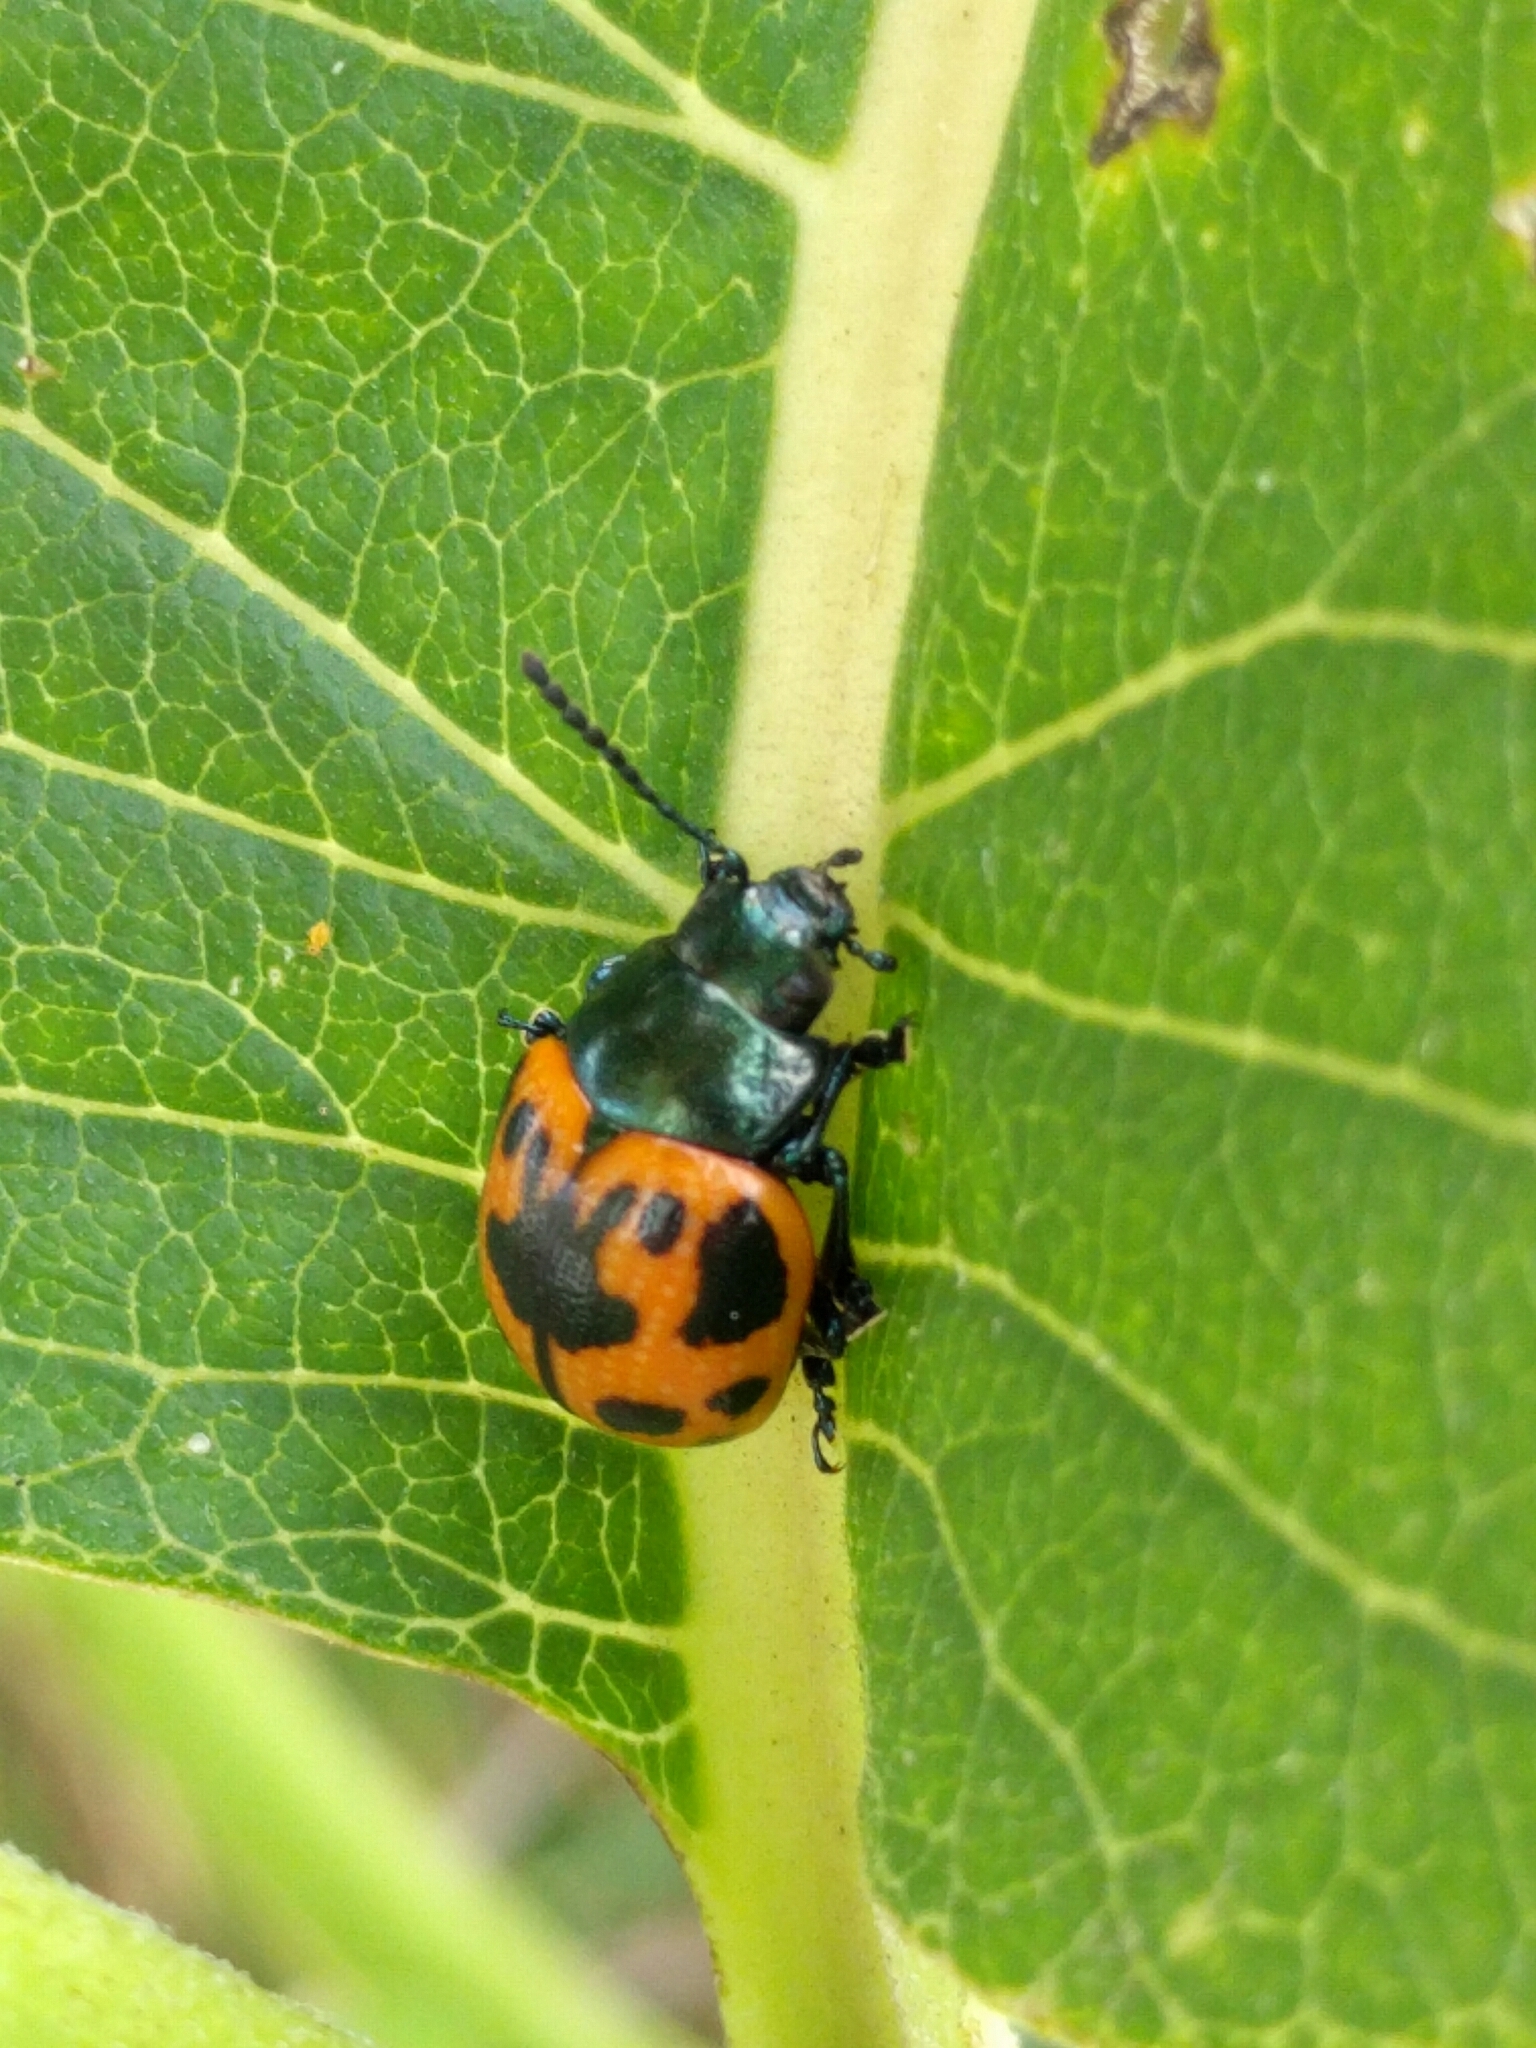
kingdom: Animalia
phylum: Arthropoda
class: Insecta
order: Coleoptera
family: Chrysomelidae
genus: Labidomera
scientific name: Labidomera clivicollis
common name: Swamp milkweed leaf beetle
